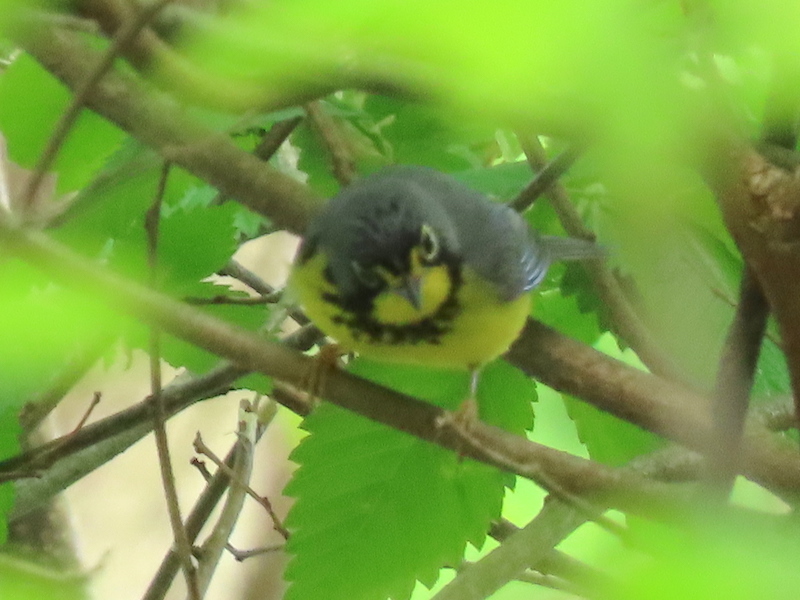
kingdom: Animalia
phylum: Chordata
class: Aves
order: Passeriformes
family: Parulidae
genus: Cardellina
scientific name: Cardellina canadensis
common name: Canada warbler
